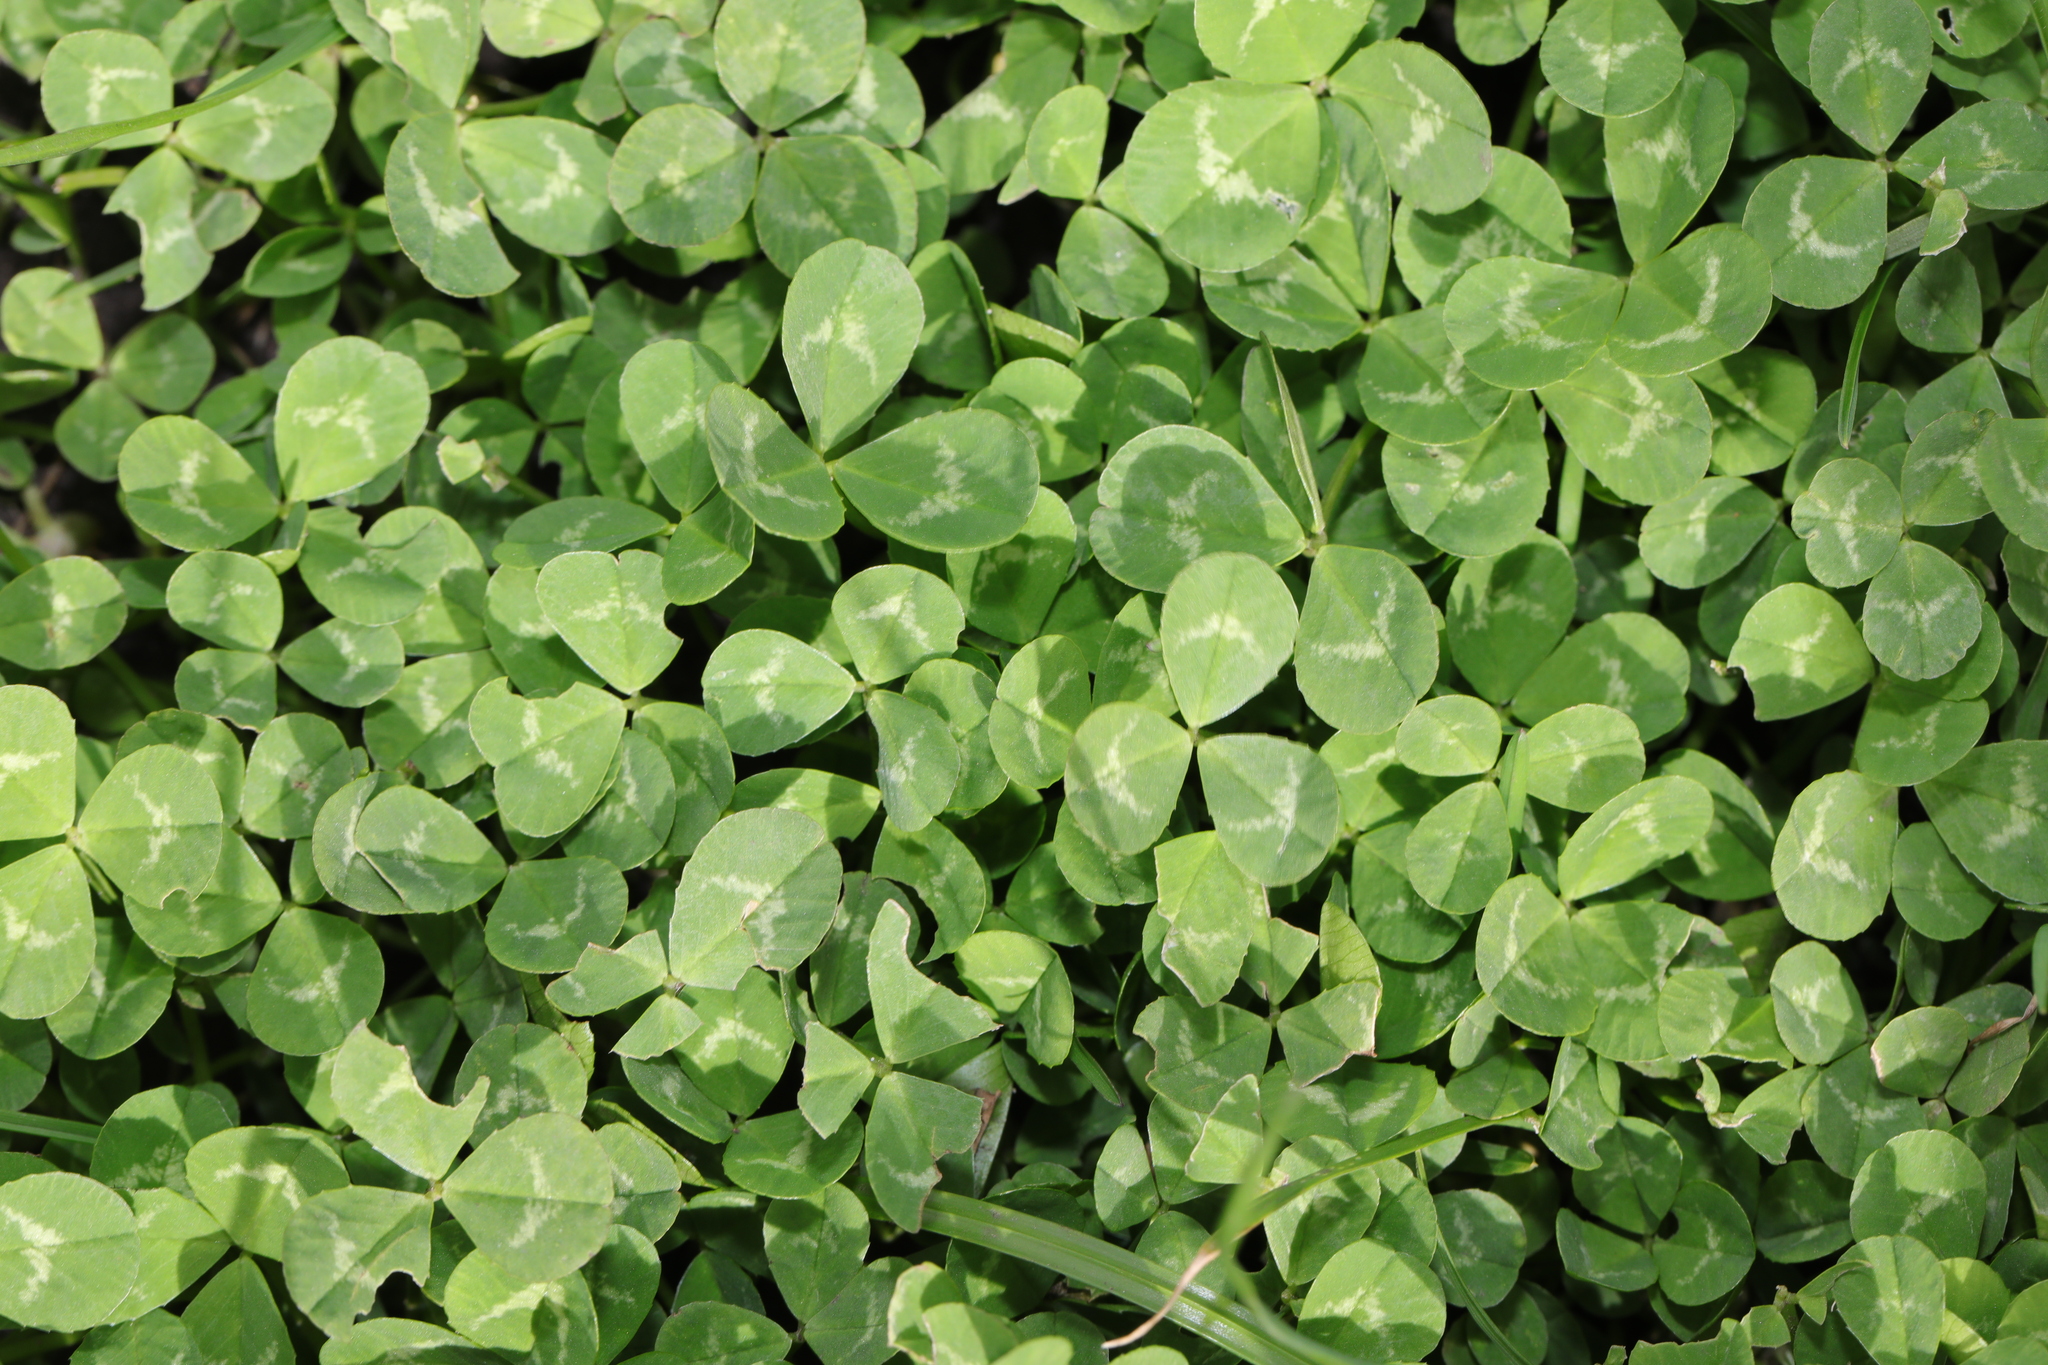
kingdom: Plantae
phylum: Tracheophyta
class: Magnoliopsida
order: Fabales
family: Fabaceae
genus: Trifolium
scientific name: Trifolium repens
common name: White clover
